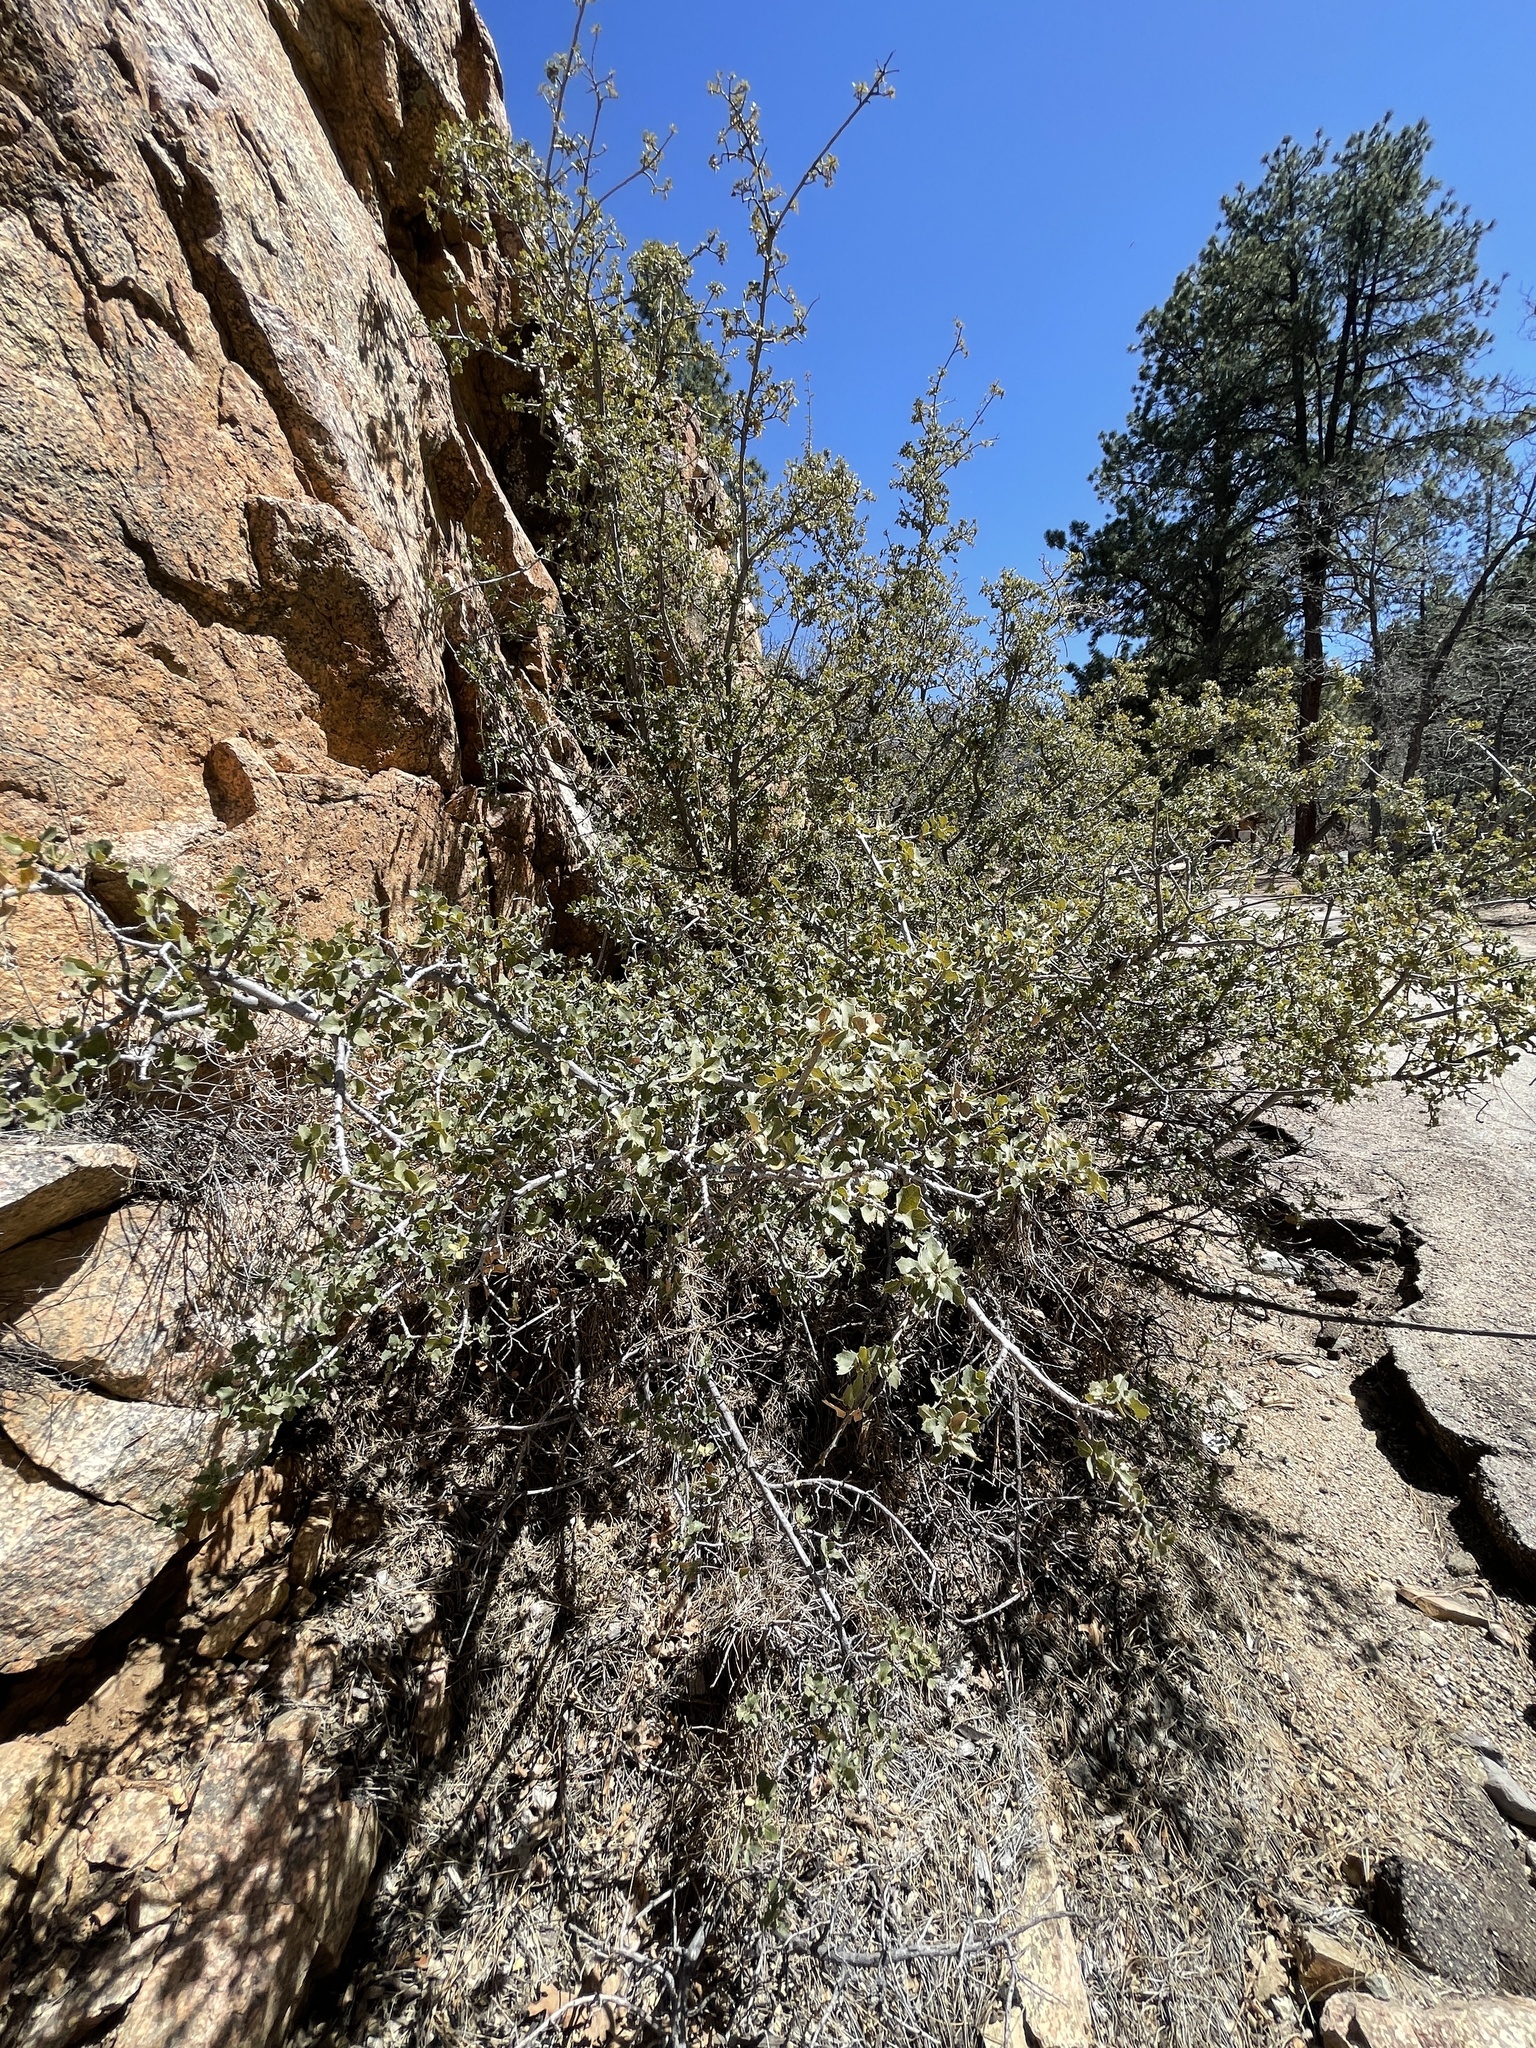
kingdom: Plantae
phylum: Tracheophyta
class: Magnoliopsida
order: Fagales
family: Fagaceae
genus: Quercus
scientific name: Quercus turbinella
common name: Sonoran scrub oak
